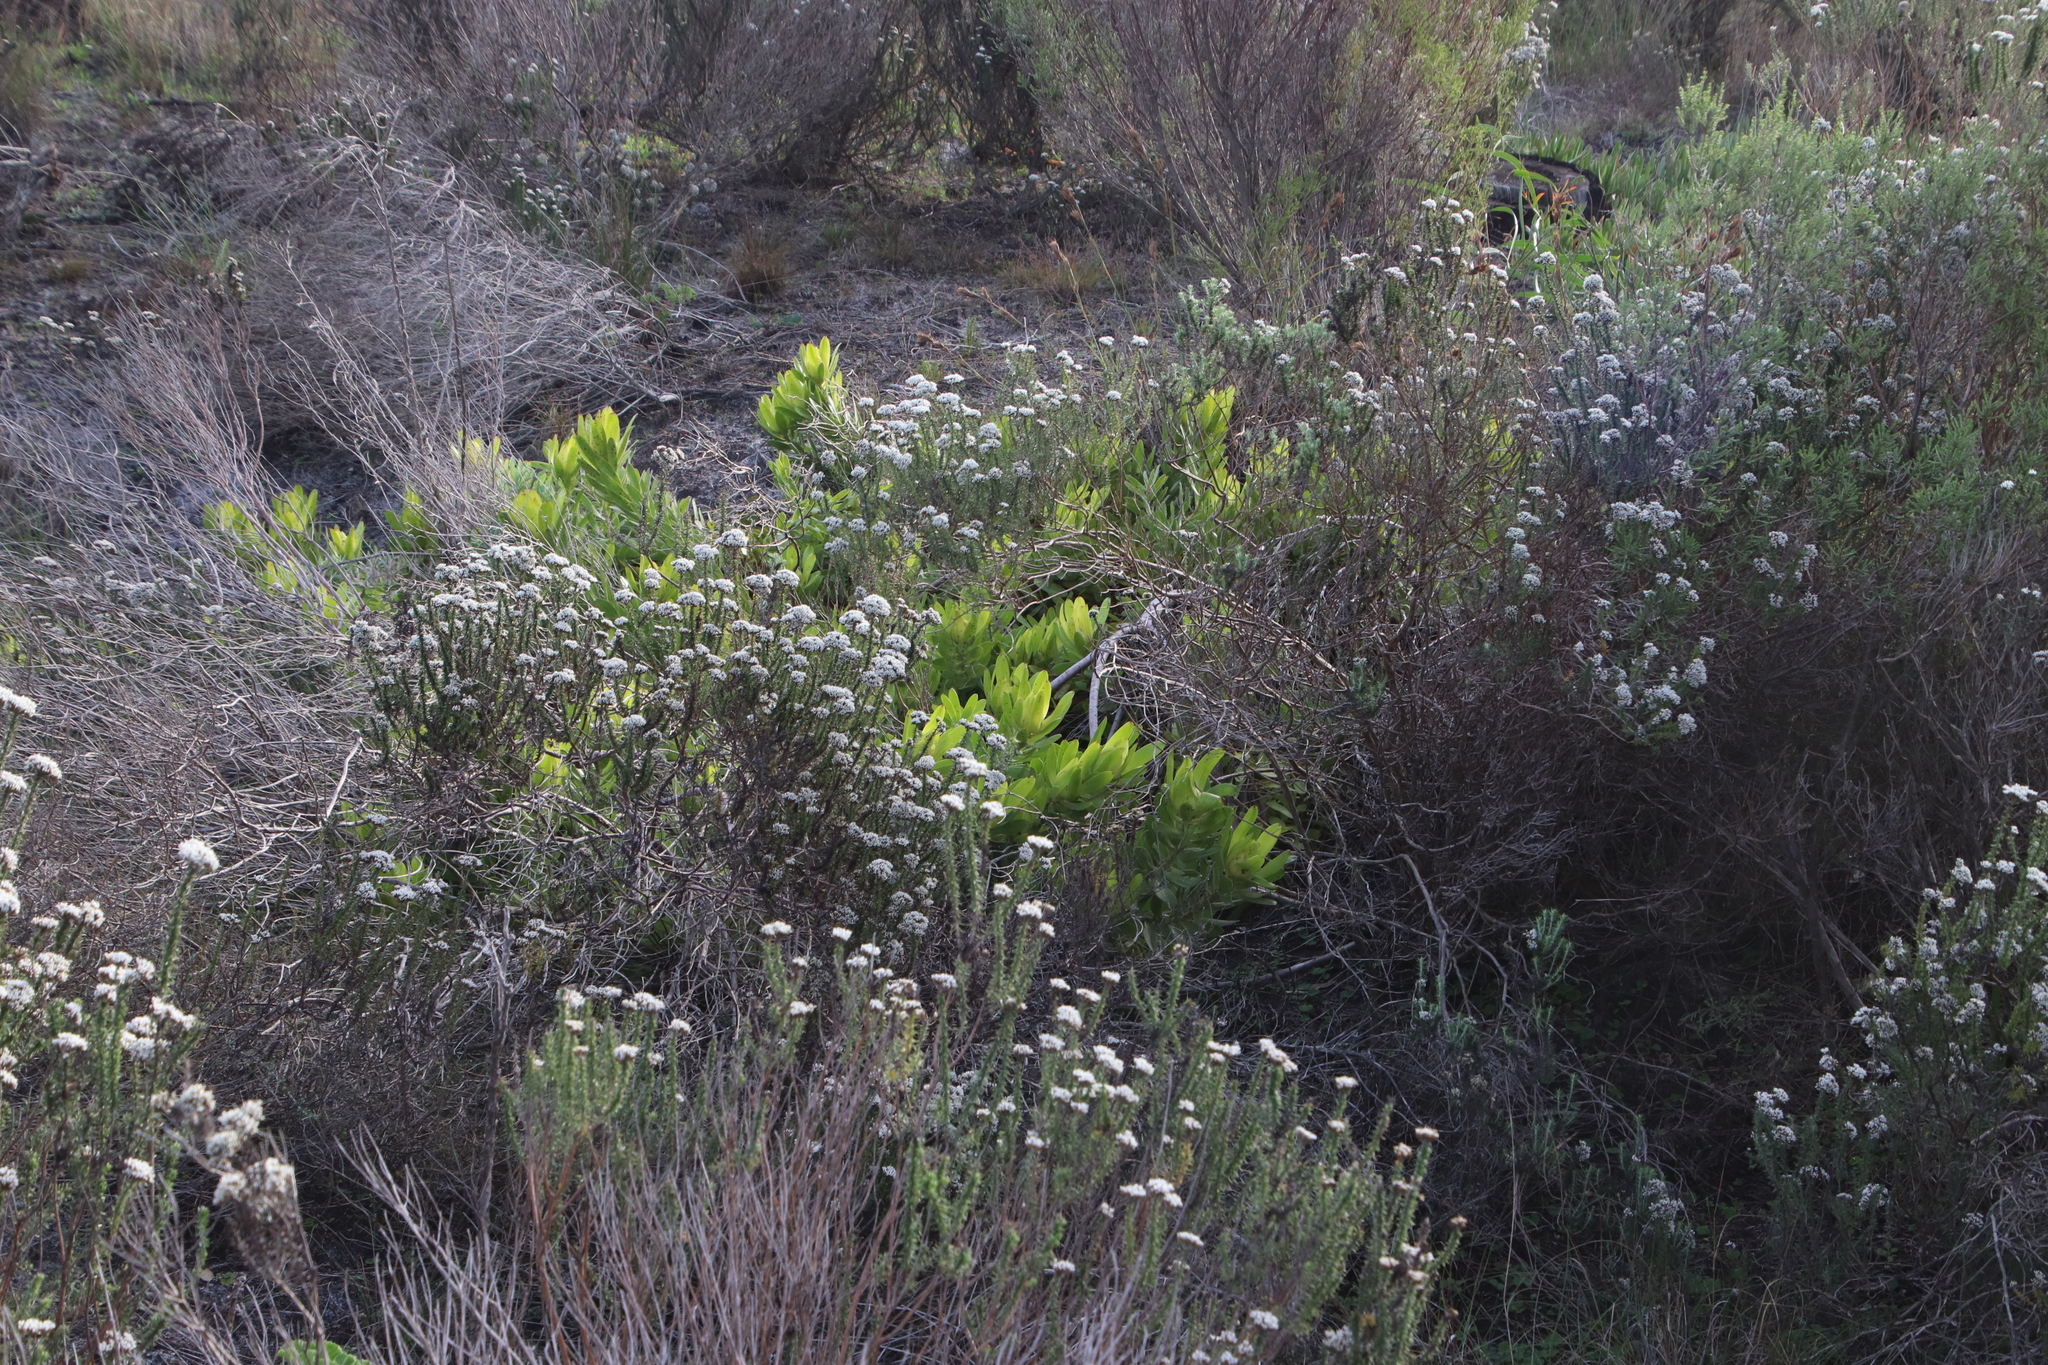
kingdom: Plantae
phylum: Tracheophyta
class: Magnoliopsida
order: Proteales
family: Proteaceae
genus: Leucadendron
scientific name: Leucadendron laureolum
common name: Golden sunshinebush
